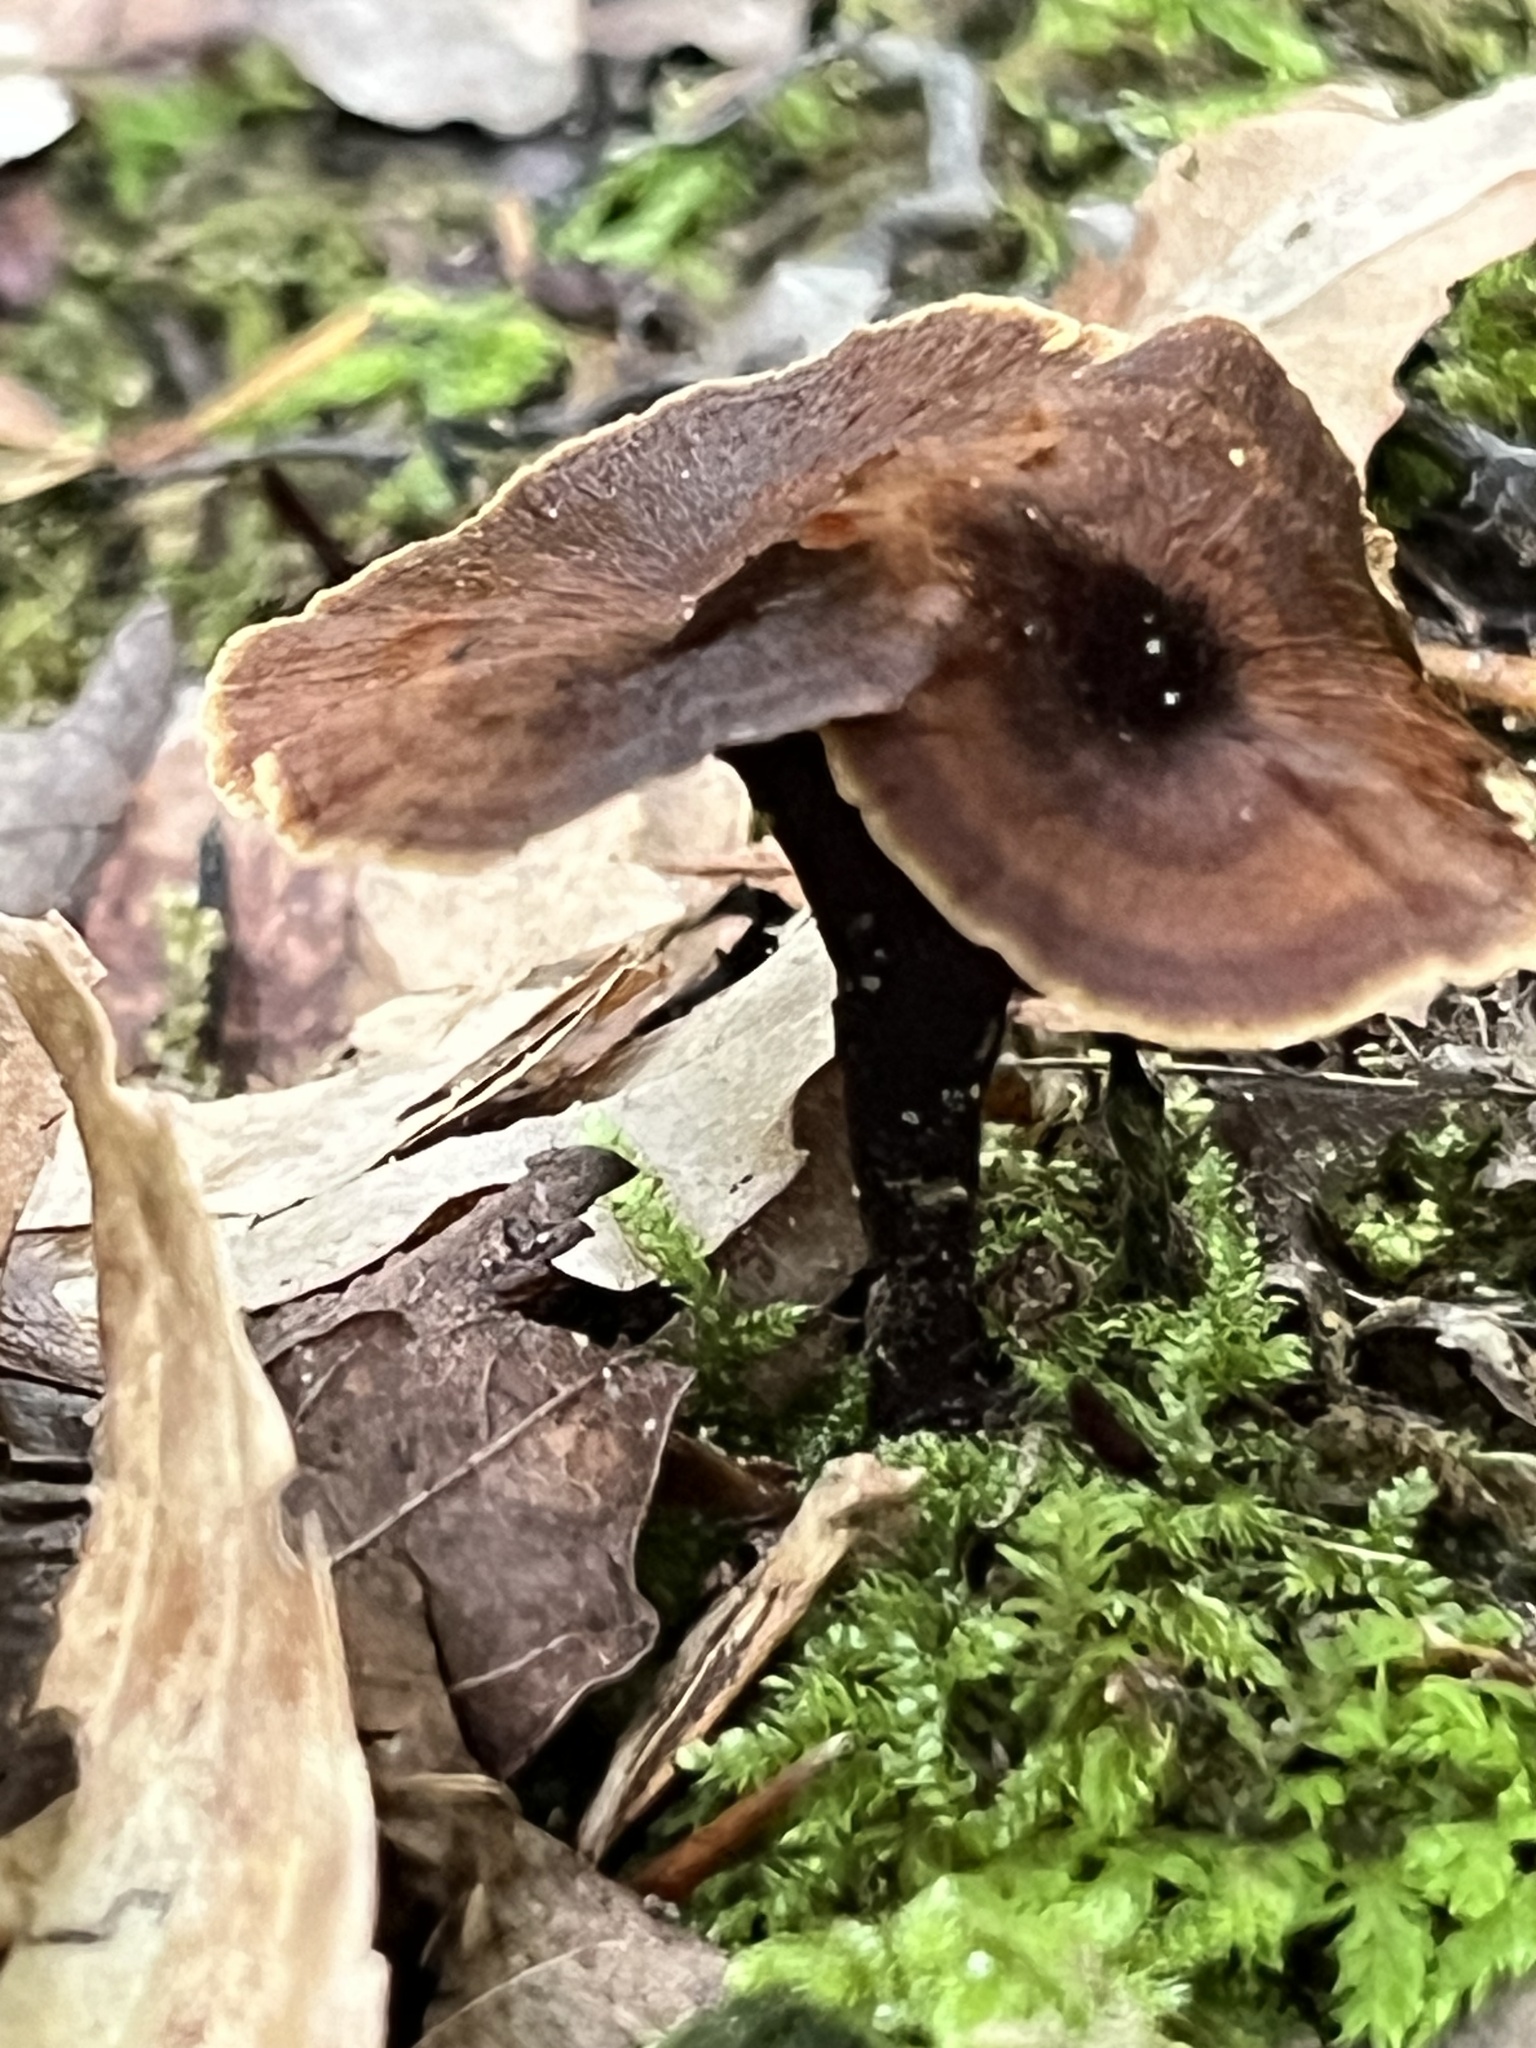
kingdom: Fungi
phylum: Basidiomycota
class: Agaricomycetes
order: Hymenochaetales
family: Hymenochaetaceae
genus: Coltricia
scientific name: Coltricia cinnamomea
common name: Shiny cinnamon polypore
